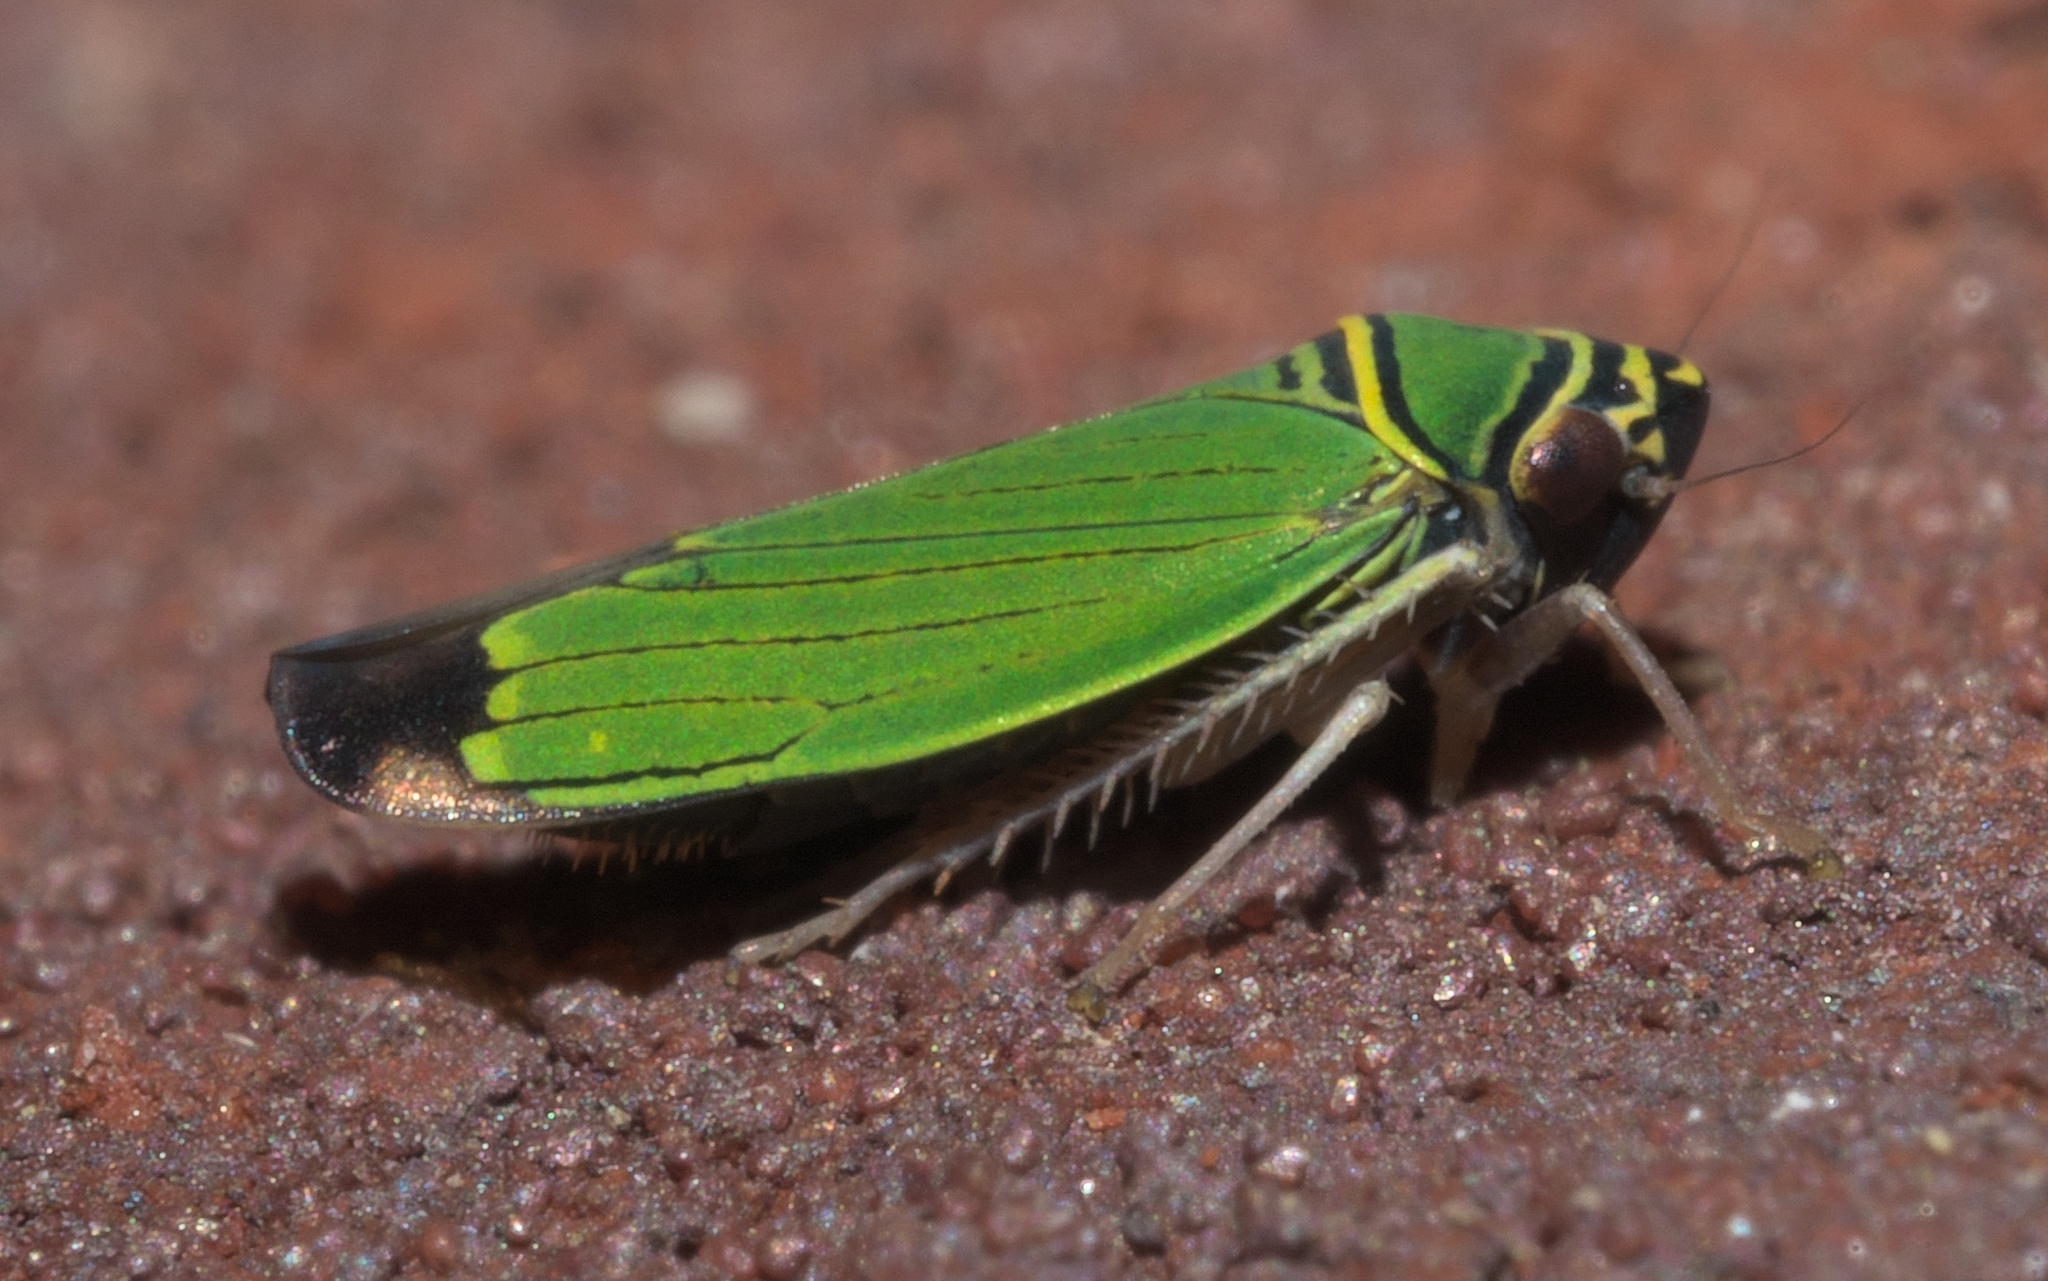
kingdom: Animalia
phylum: Arthropoda
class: Insecta
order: Hemiptera
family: Cicadellidae
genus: Tylozygus
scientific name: Tylozygus geometricus
